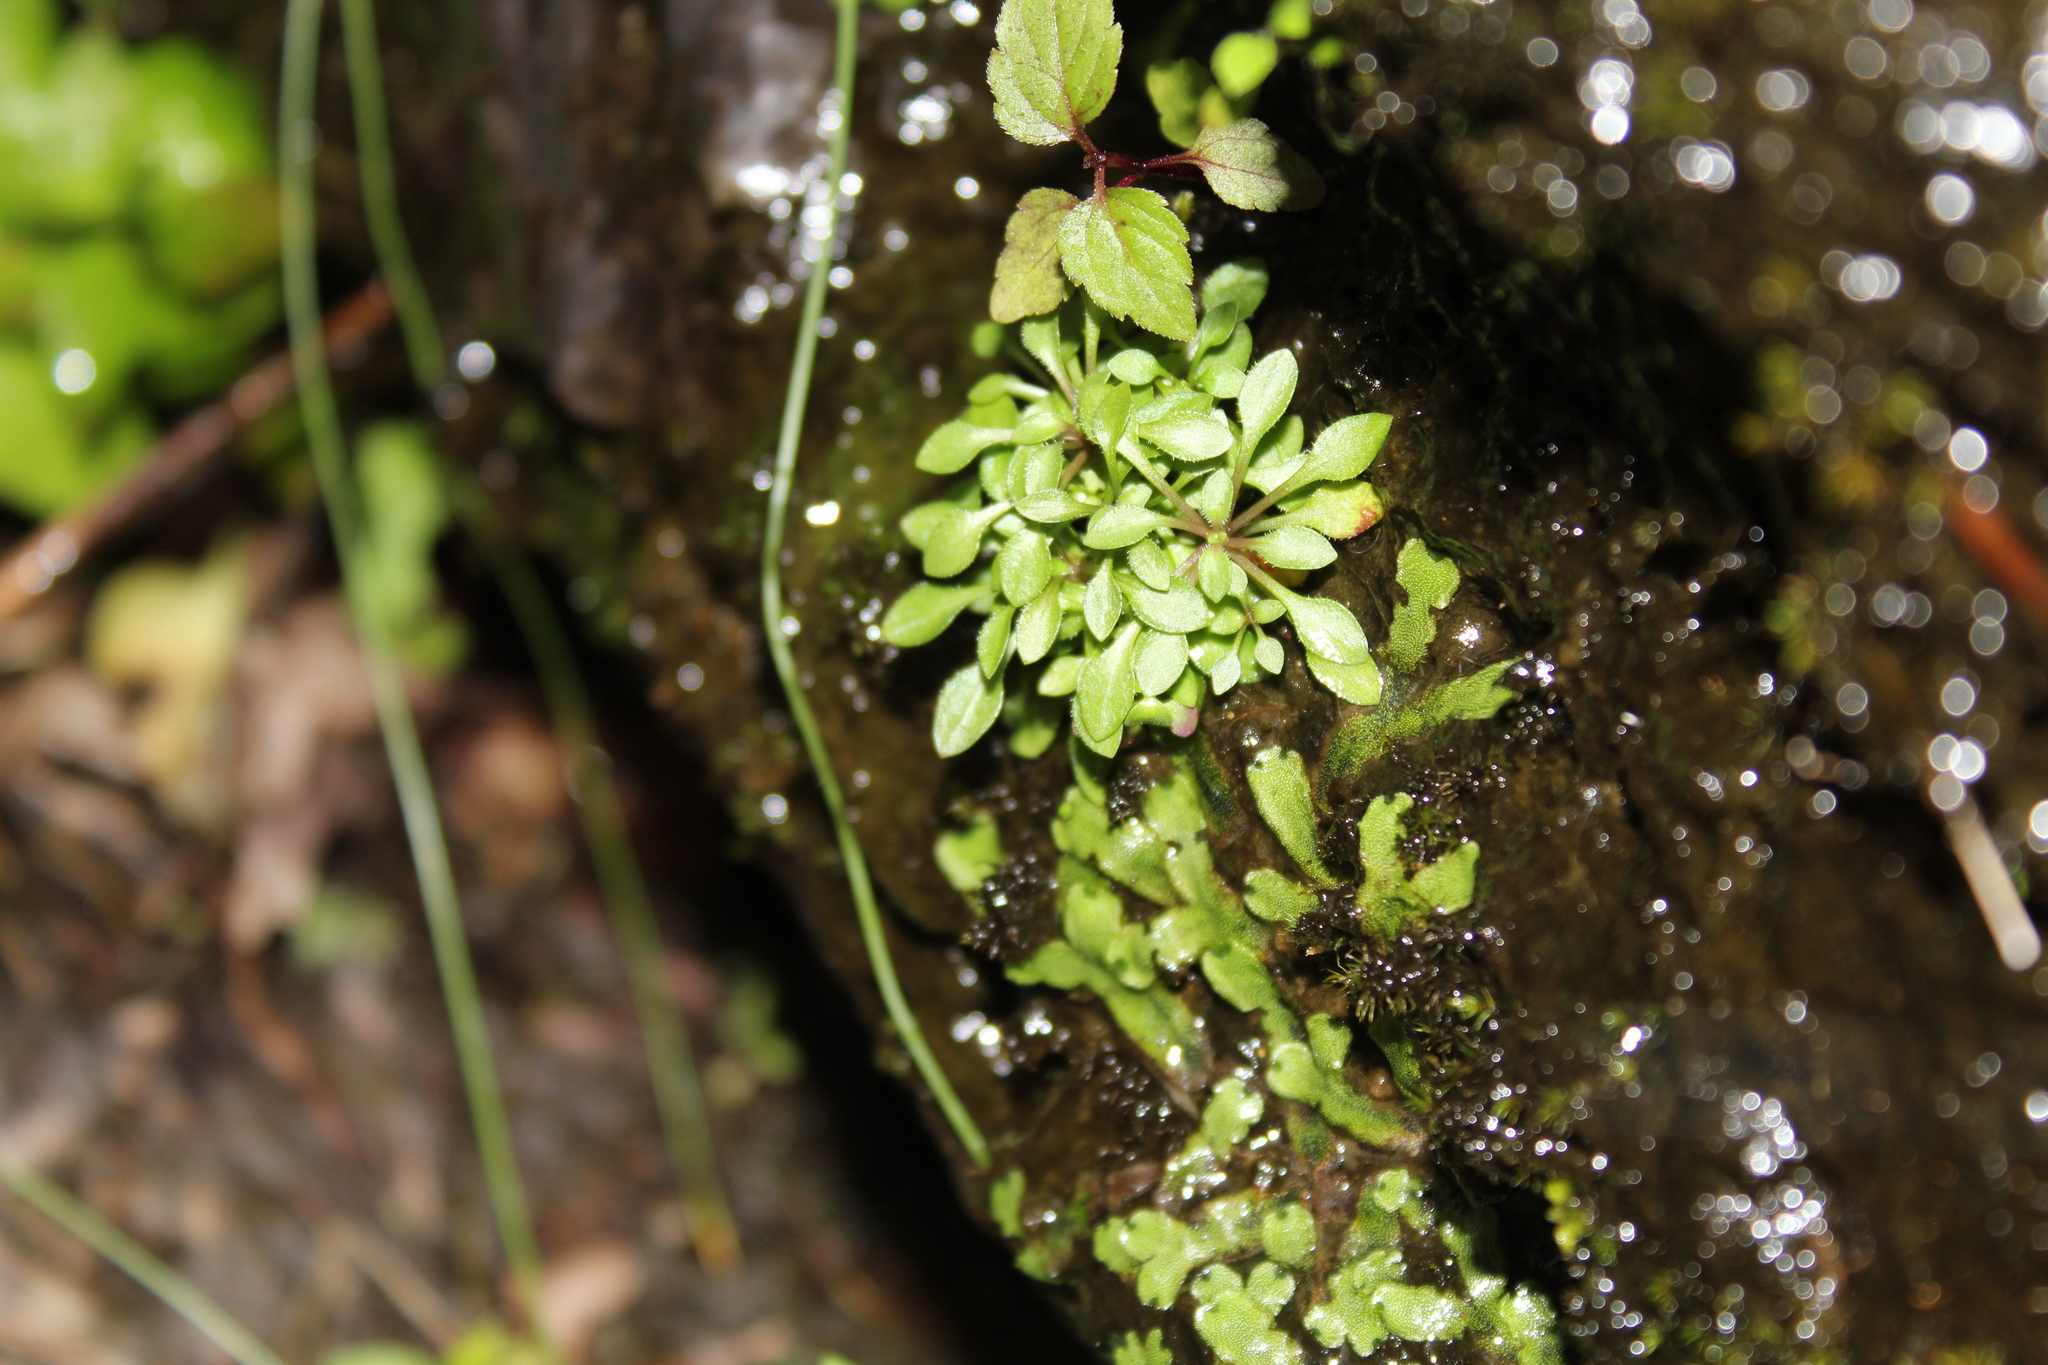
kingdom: Plantae
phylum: Tracheophyta
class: Magnoliopsida
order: Gentianales
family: Rubiaceae
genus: Houstonia
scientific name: Houstonia caerulea
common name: Bluets
